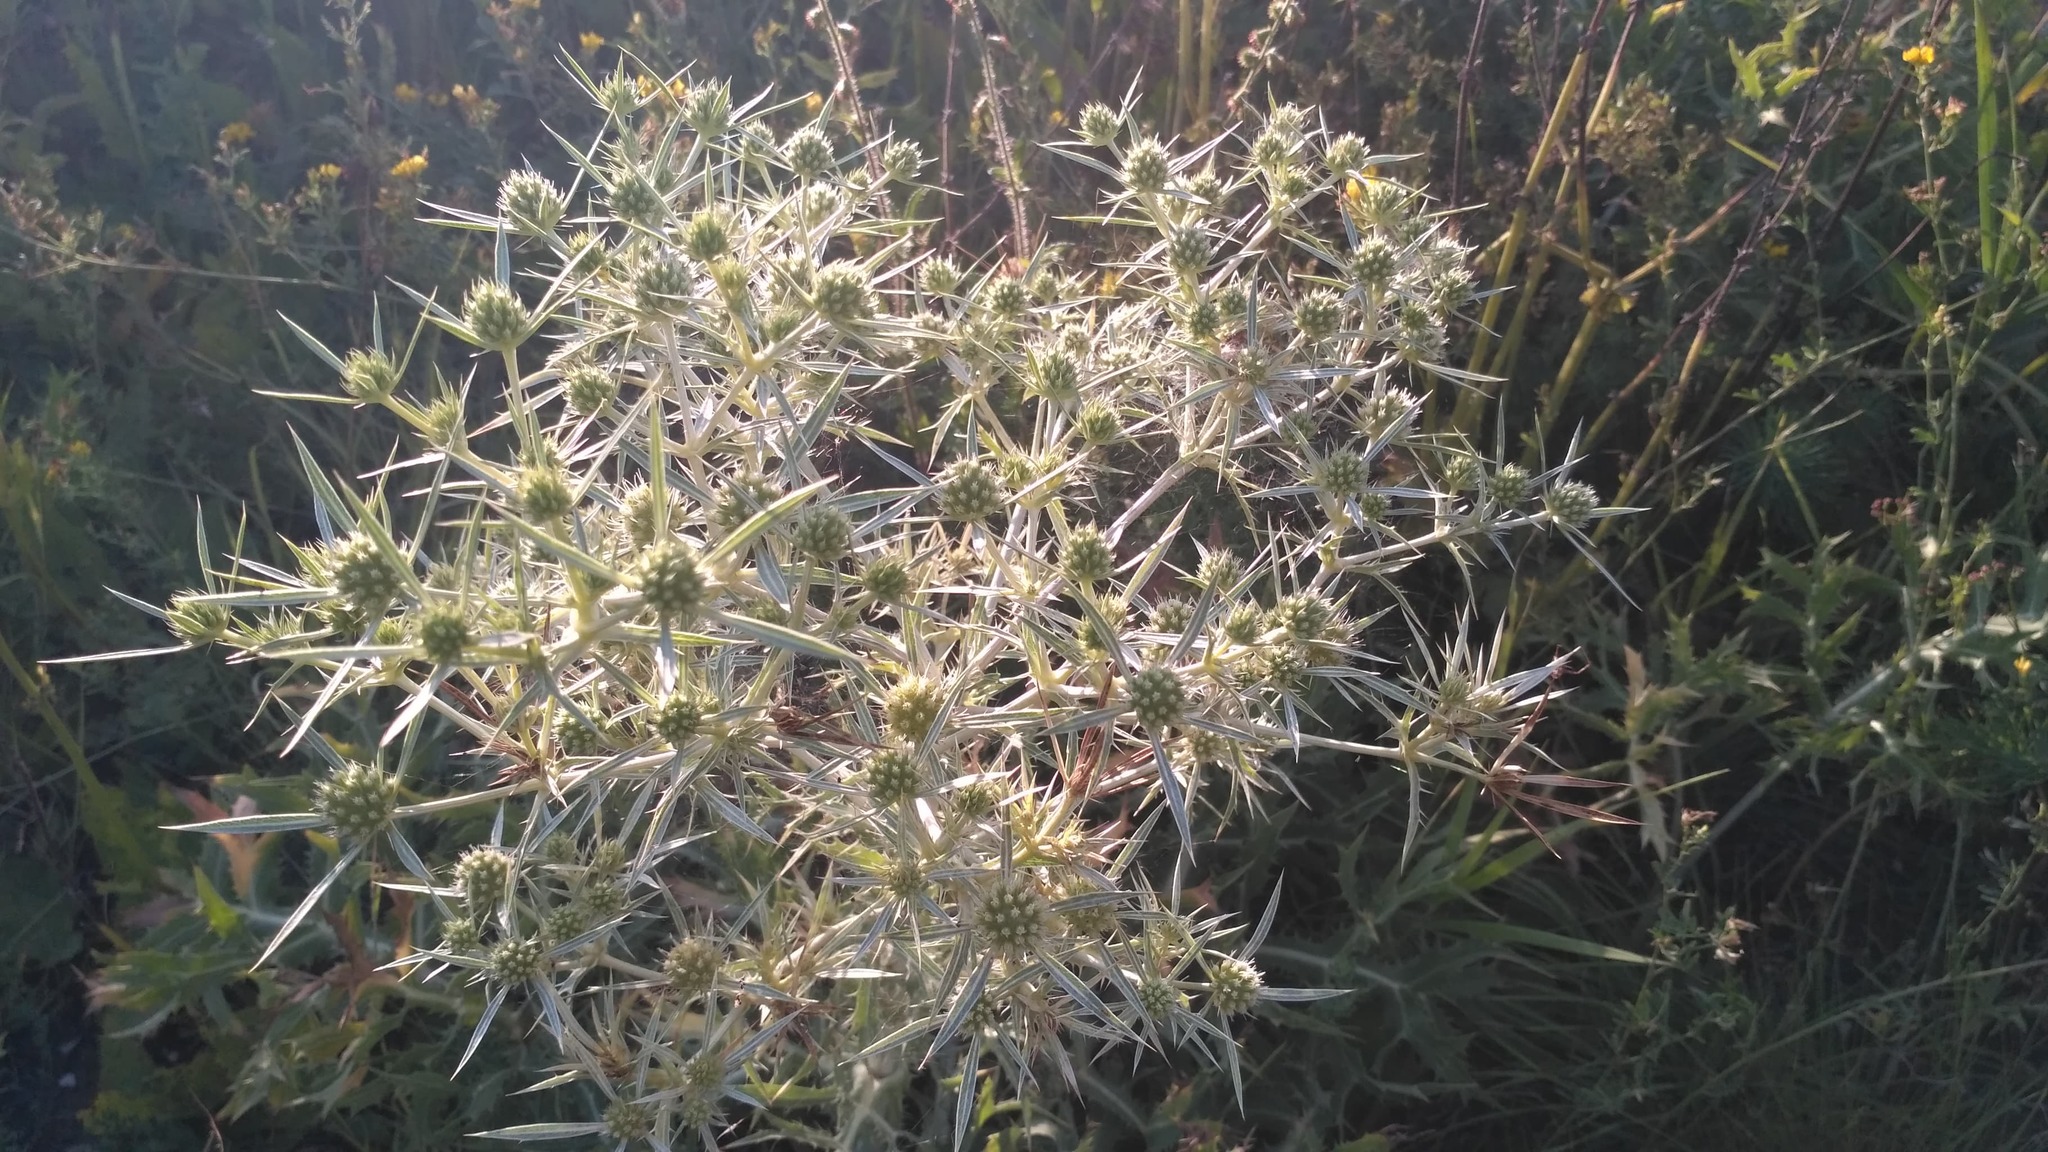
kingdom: Plantae
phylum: Tracheophyta
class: Magnoliopsida
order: Apiales
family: Apiaceae
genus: Eryngium
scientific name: Eryngium campestre
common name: Field eryngo
